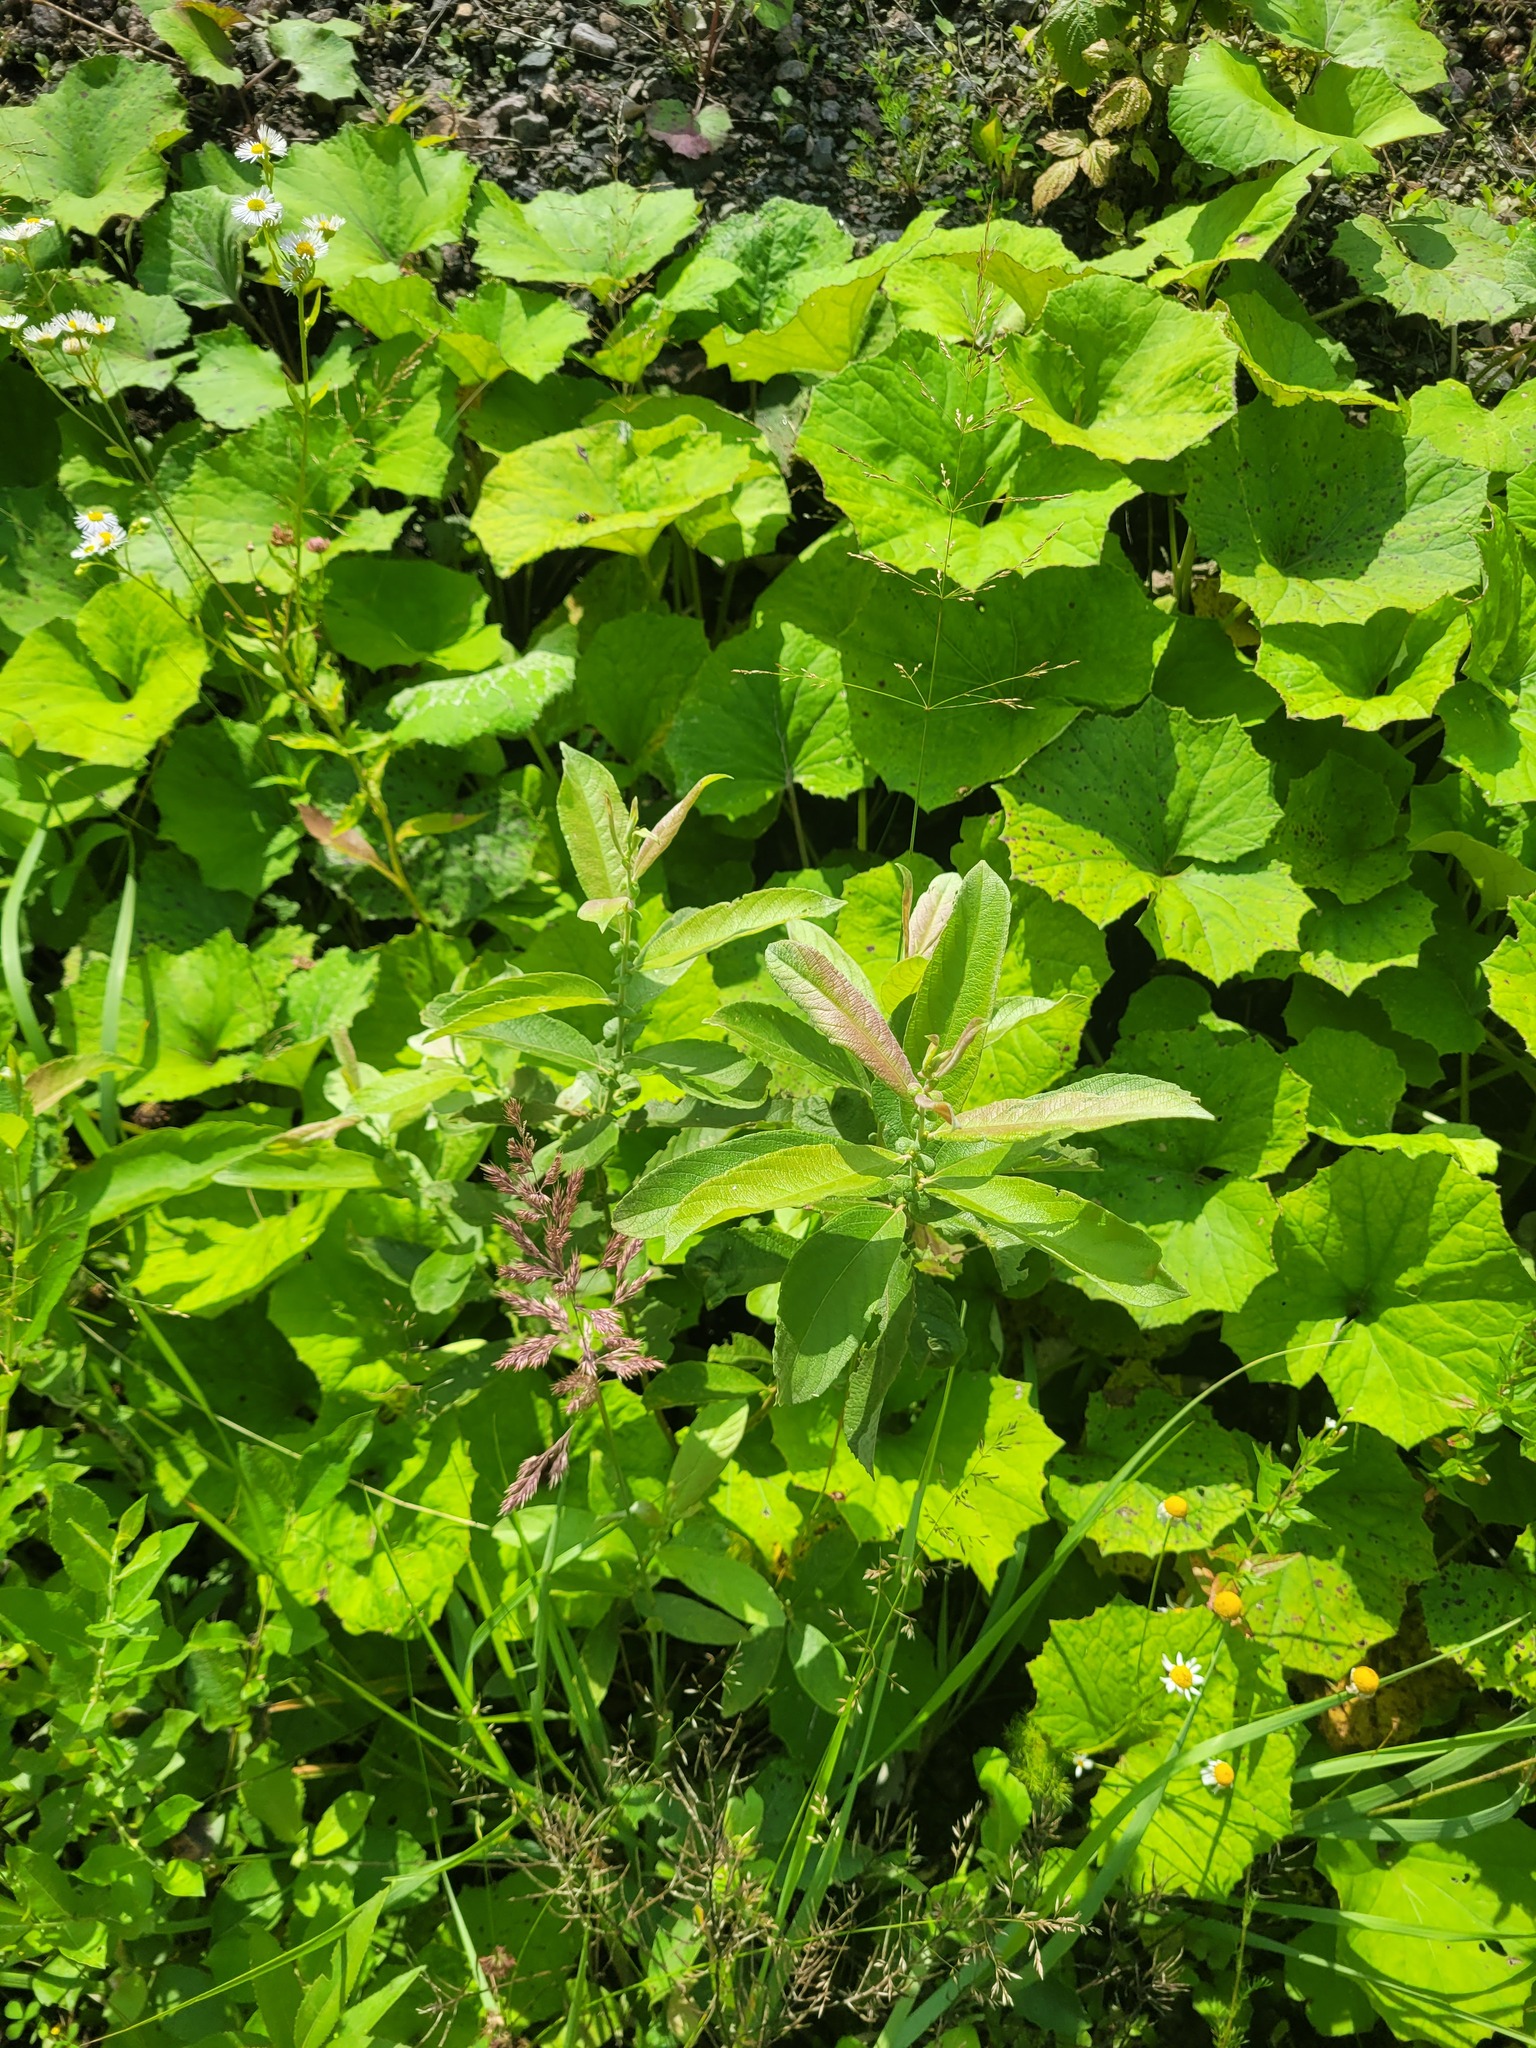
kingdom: Plantae
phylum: Tracheophyta
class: Magnoliopsida
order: Malpighiales
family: Salicaceae
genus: Salix
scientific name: Salix cinerea
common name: Common sallow
